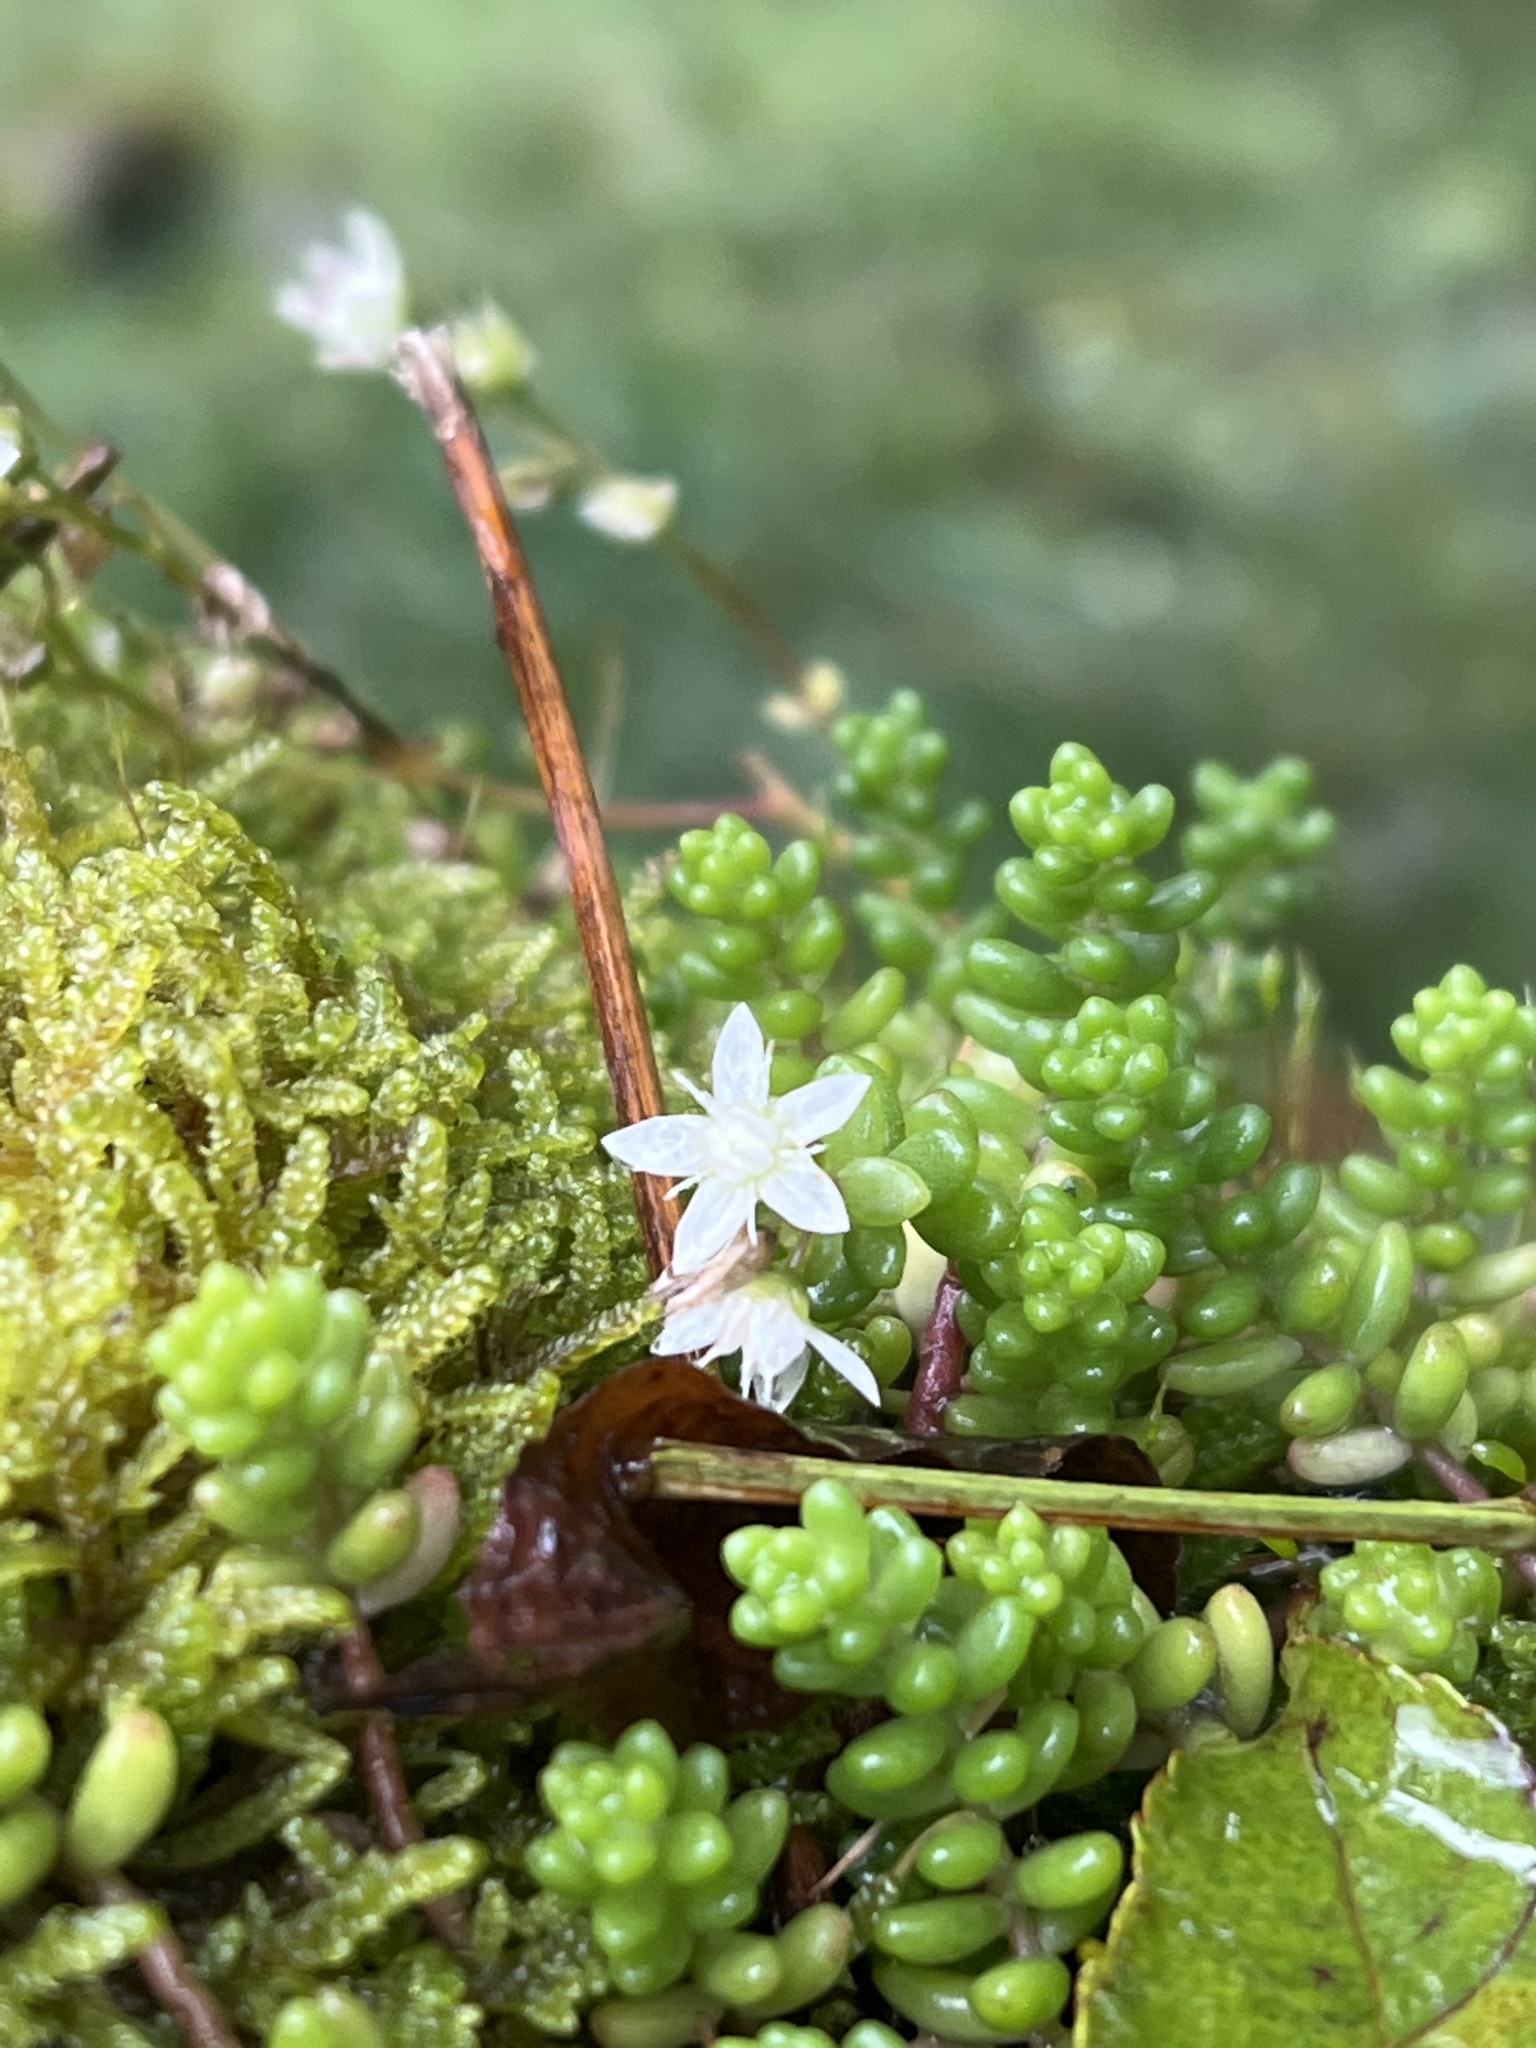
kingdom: Plantae
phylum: Tracheophyta
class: Magnoliopsida
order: Saxifragales
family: Crassulaceae
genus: Sedum
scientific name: Sedum album
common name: White stonecrop
